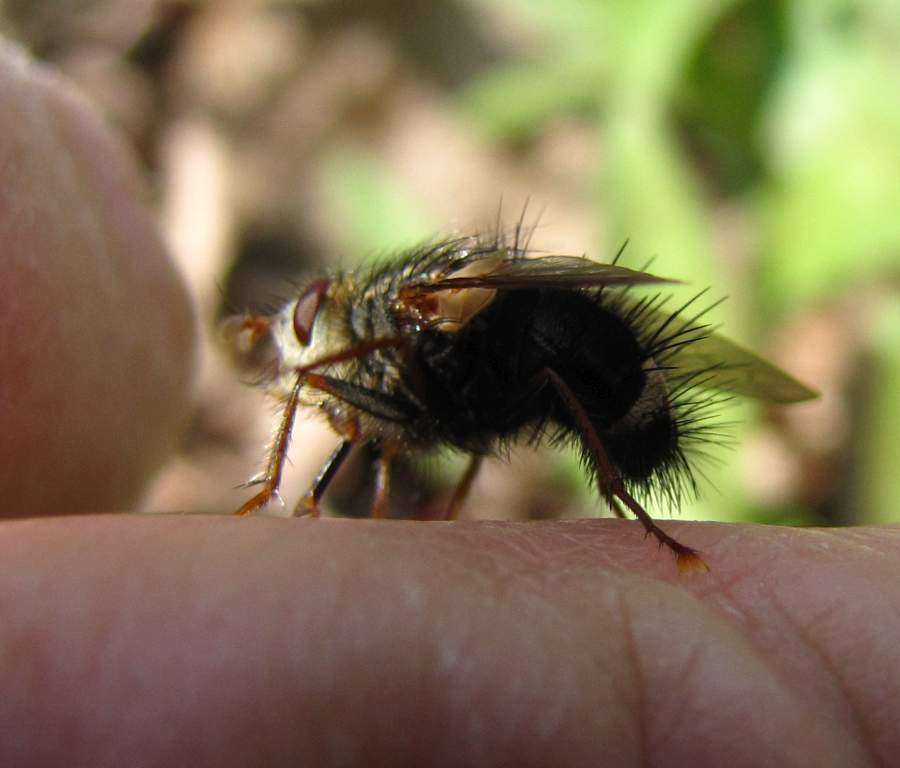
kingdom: Animalia
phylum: Arthropoda
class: Insecta
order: Diptera
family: Tachinidae
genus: Epalpus
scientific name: Epalpus signifer
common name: Early tachinid fly
